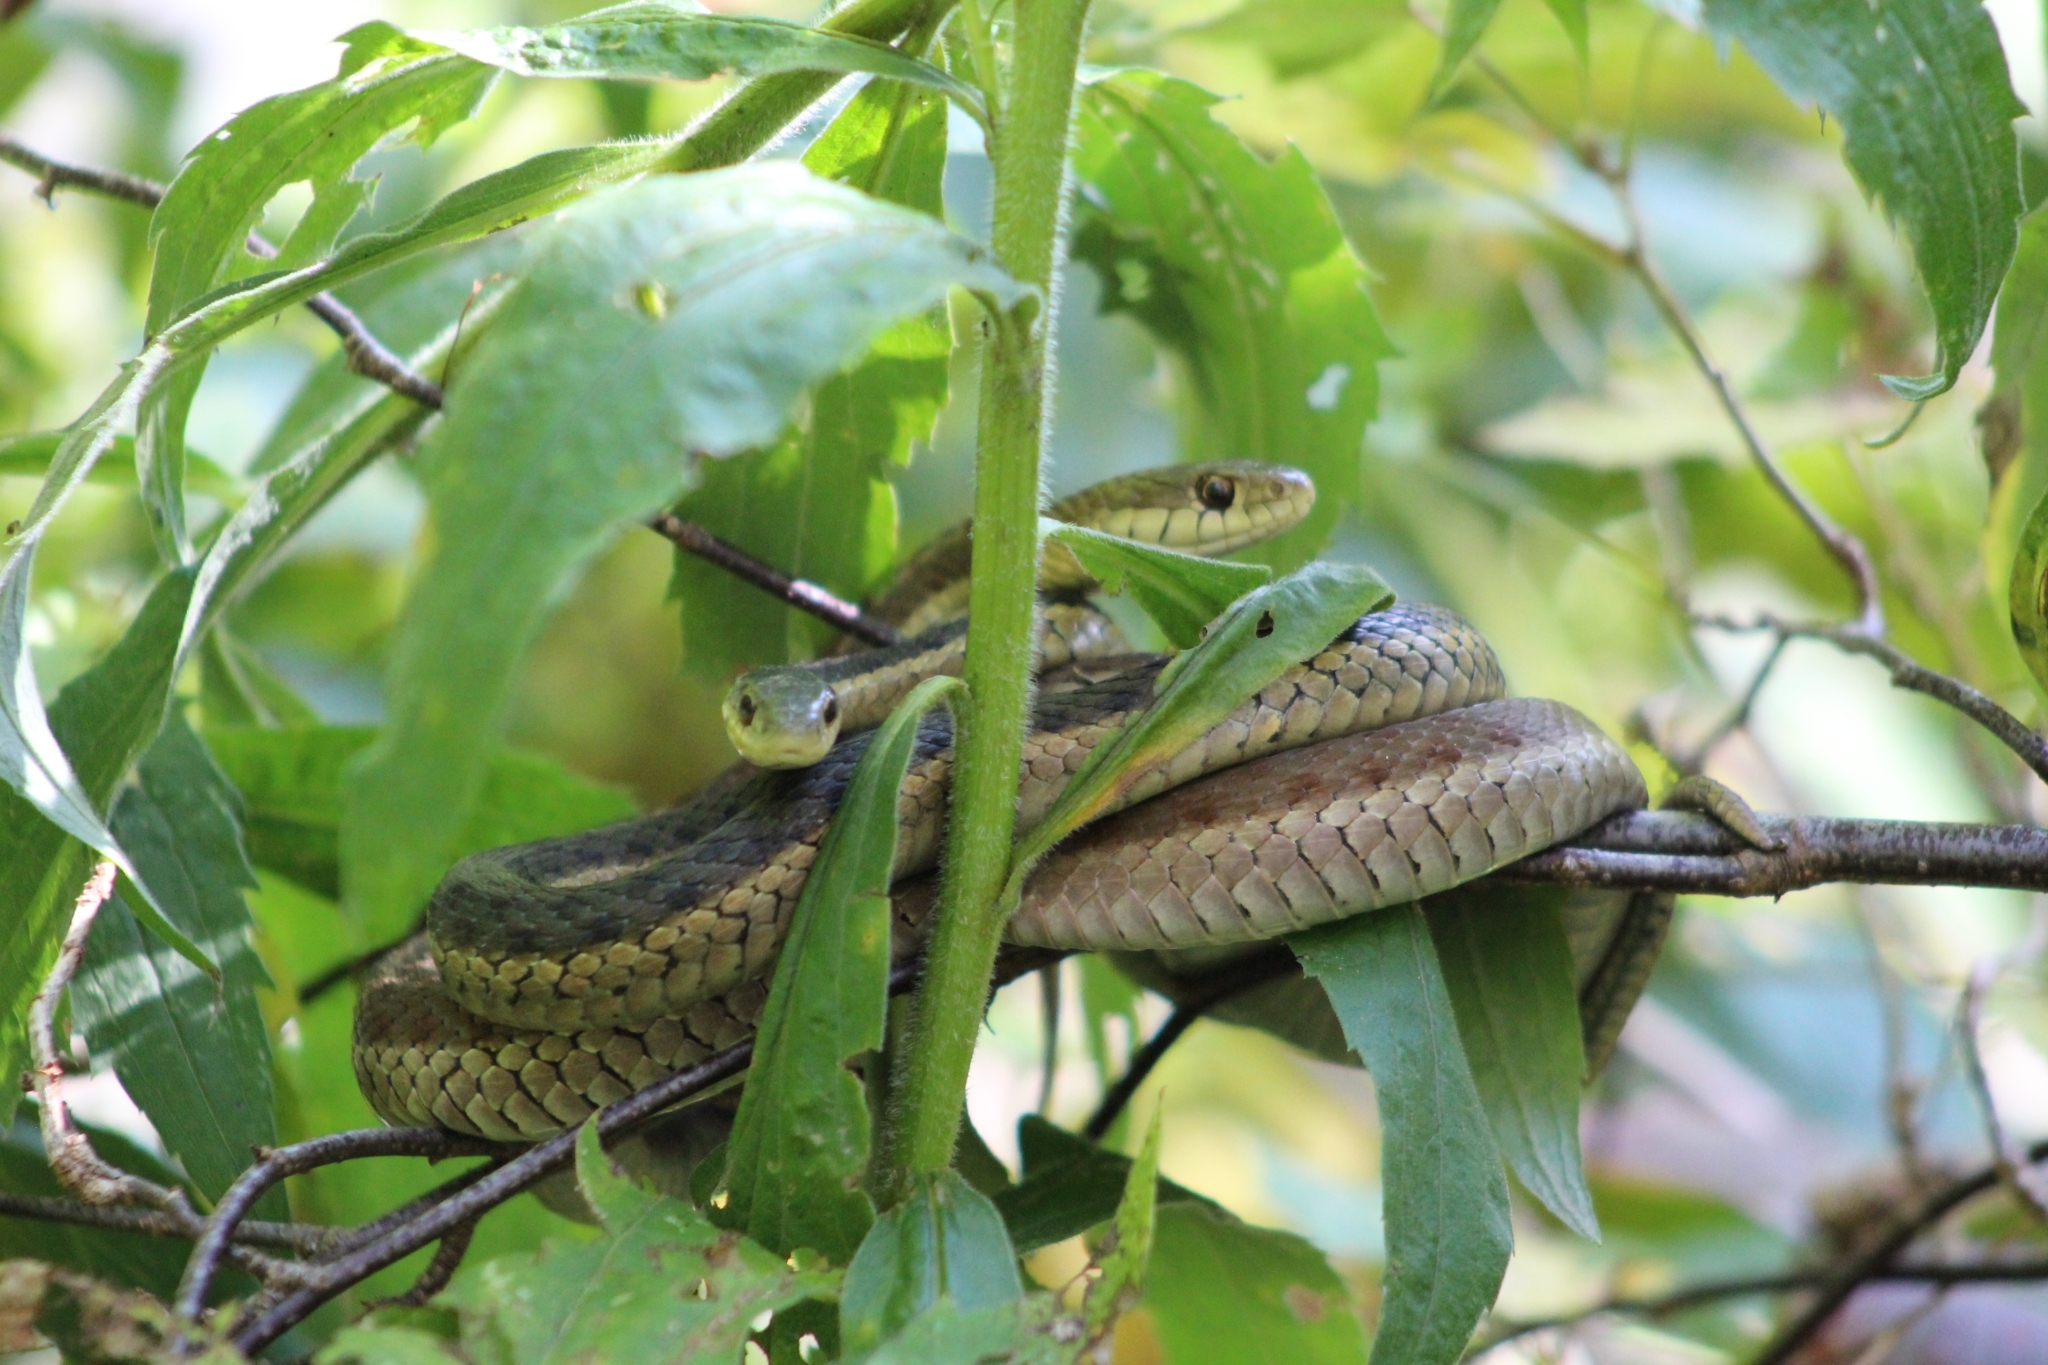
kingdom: Animalia
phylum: Chordata
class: Squamata
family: Colubridae
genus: Thamnophis
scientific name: Thamnophis sirtalis
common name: Common garter snake
